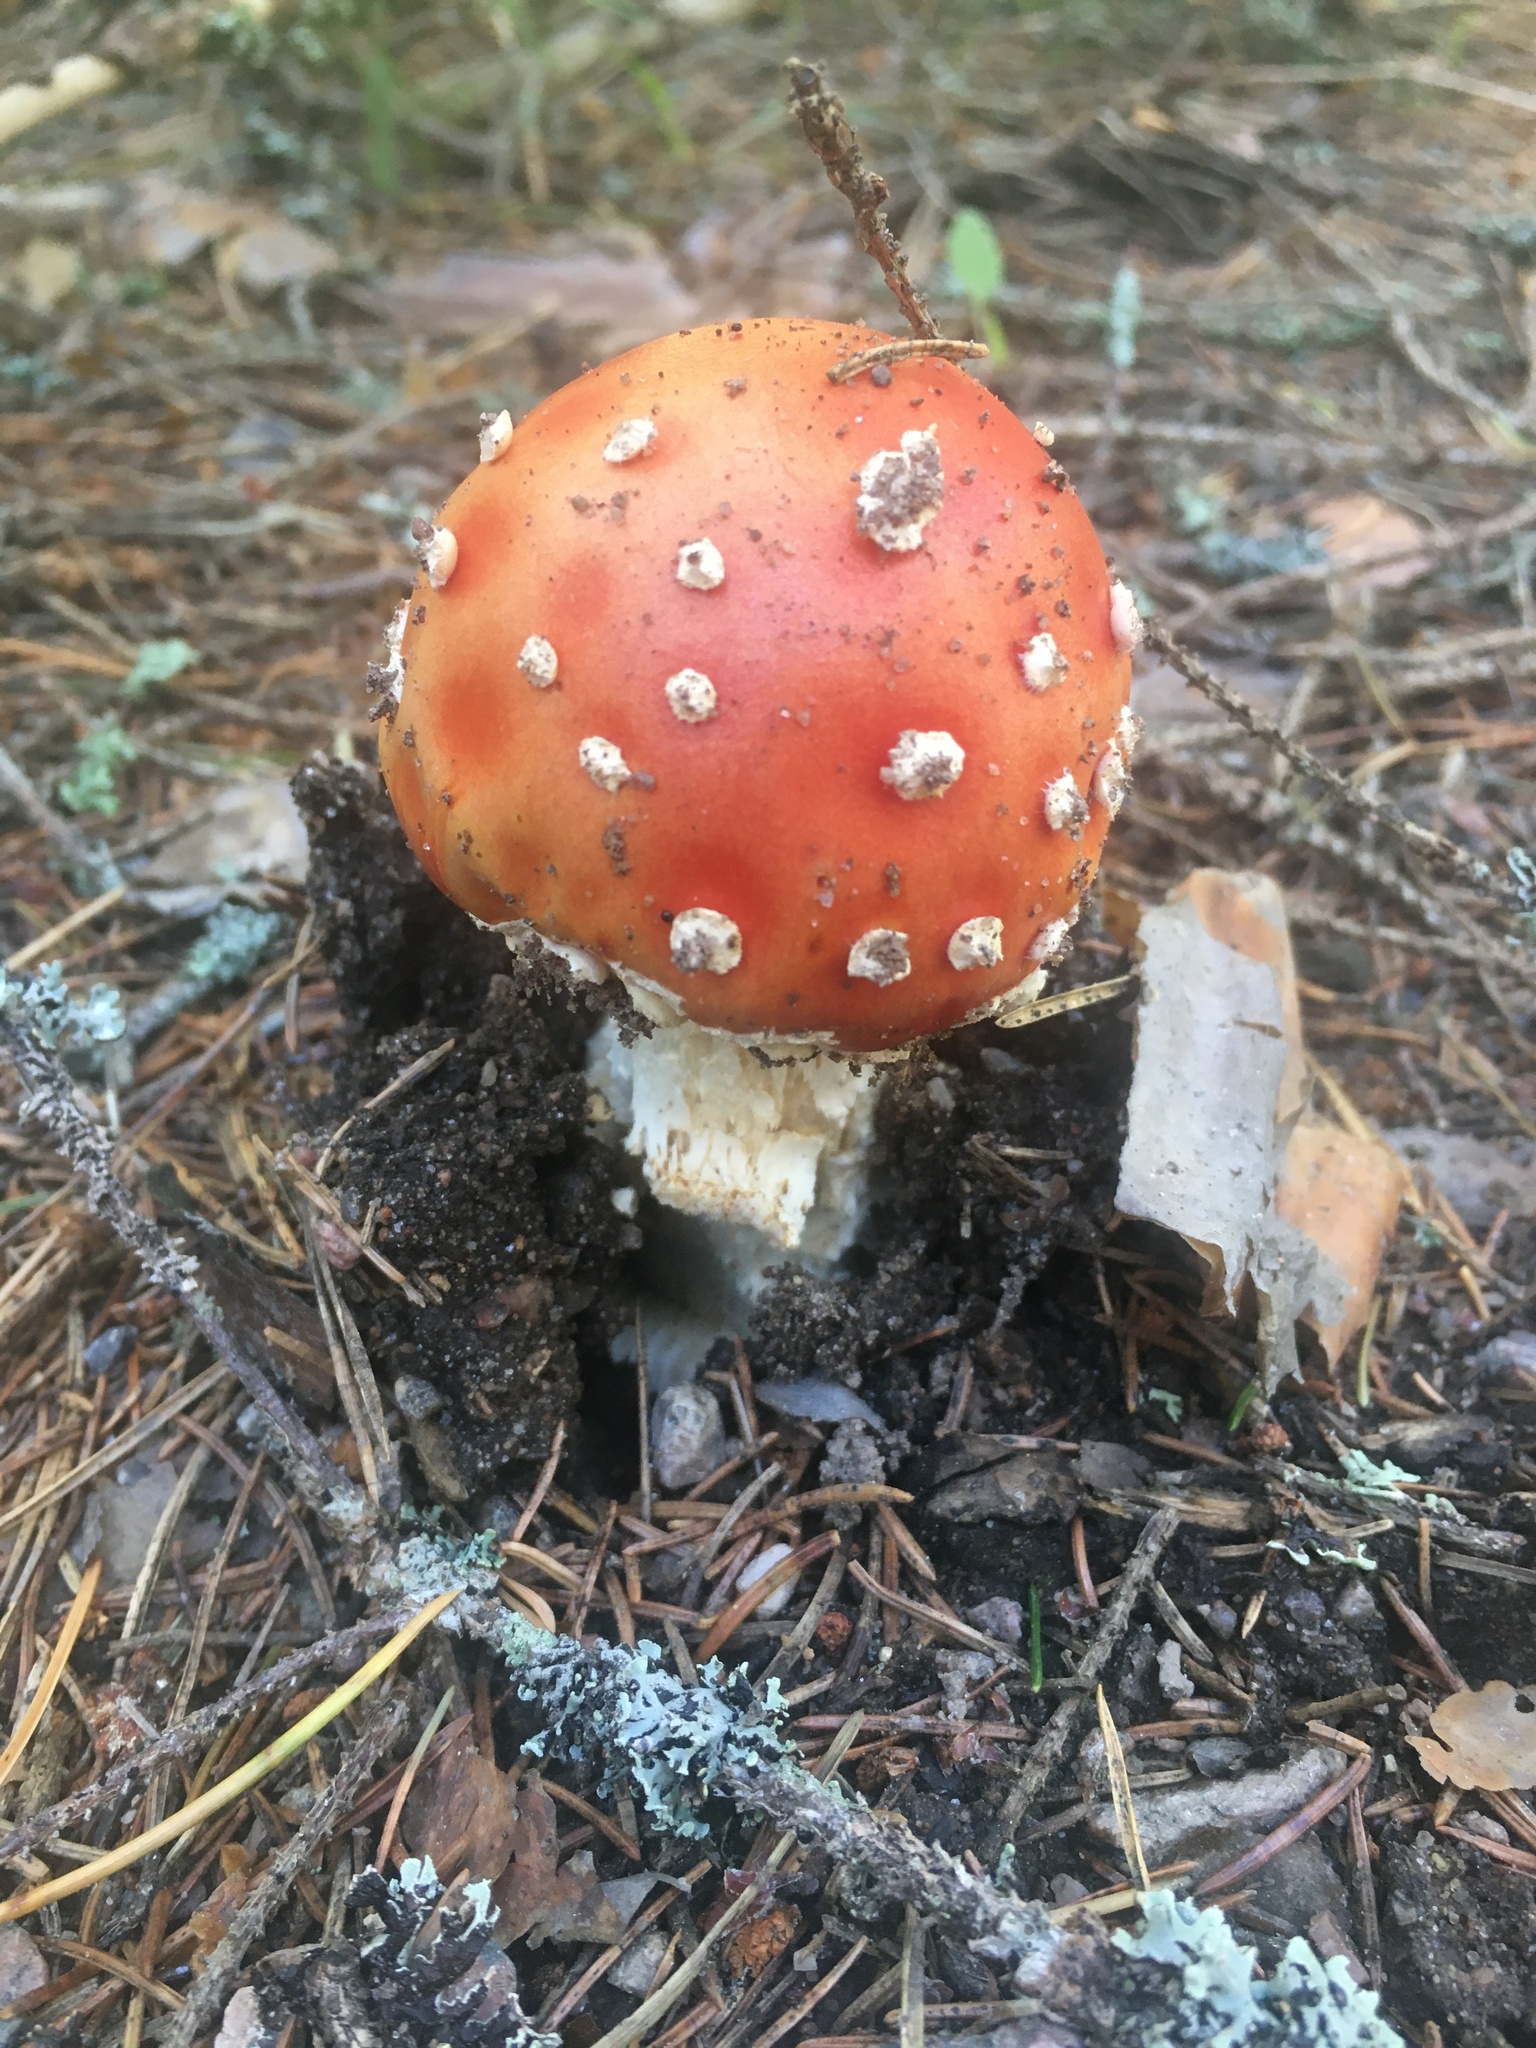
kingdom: Fungi
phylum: Basidiomycota
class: Agaricomycetes
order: Agaricales
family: Amanitaceae
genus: Amanita
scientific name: Amanita muscaria
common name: Fly agaric
